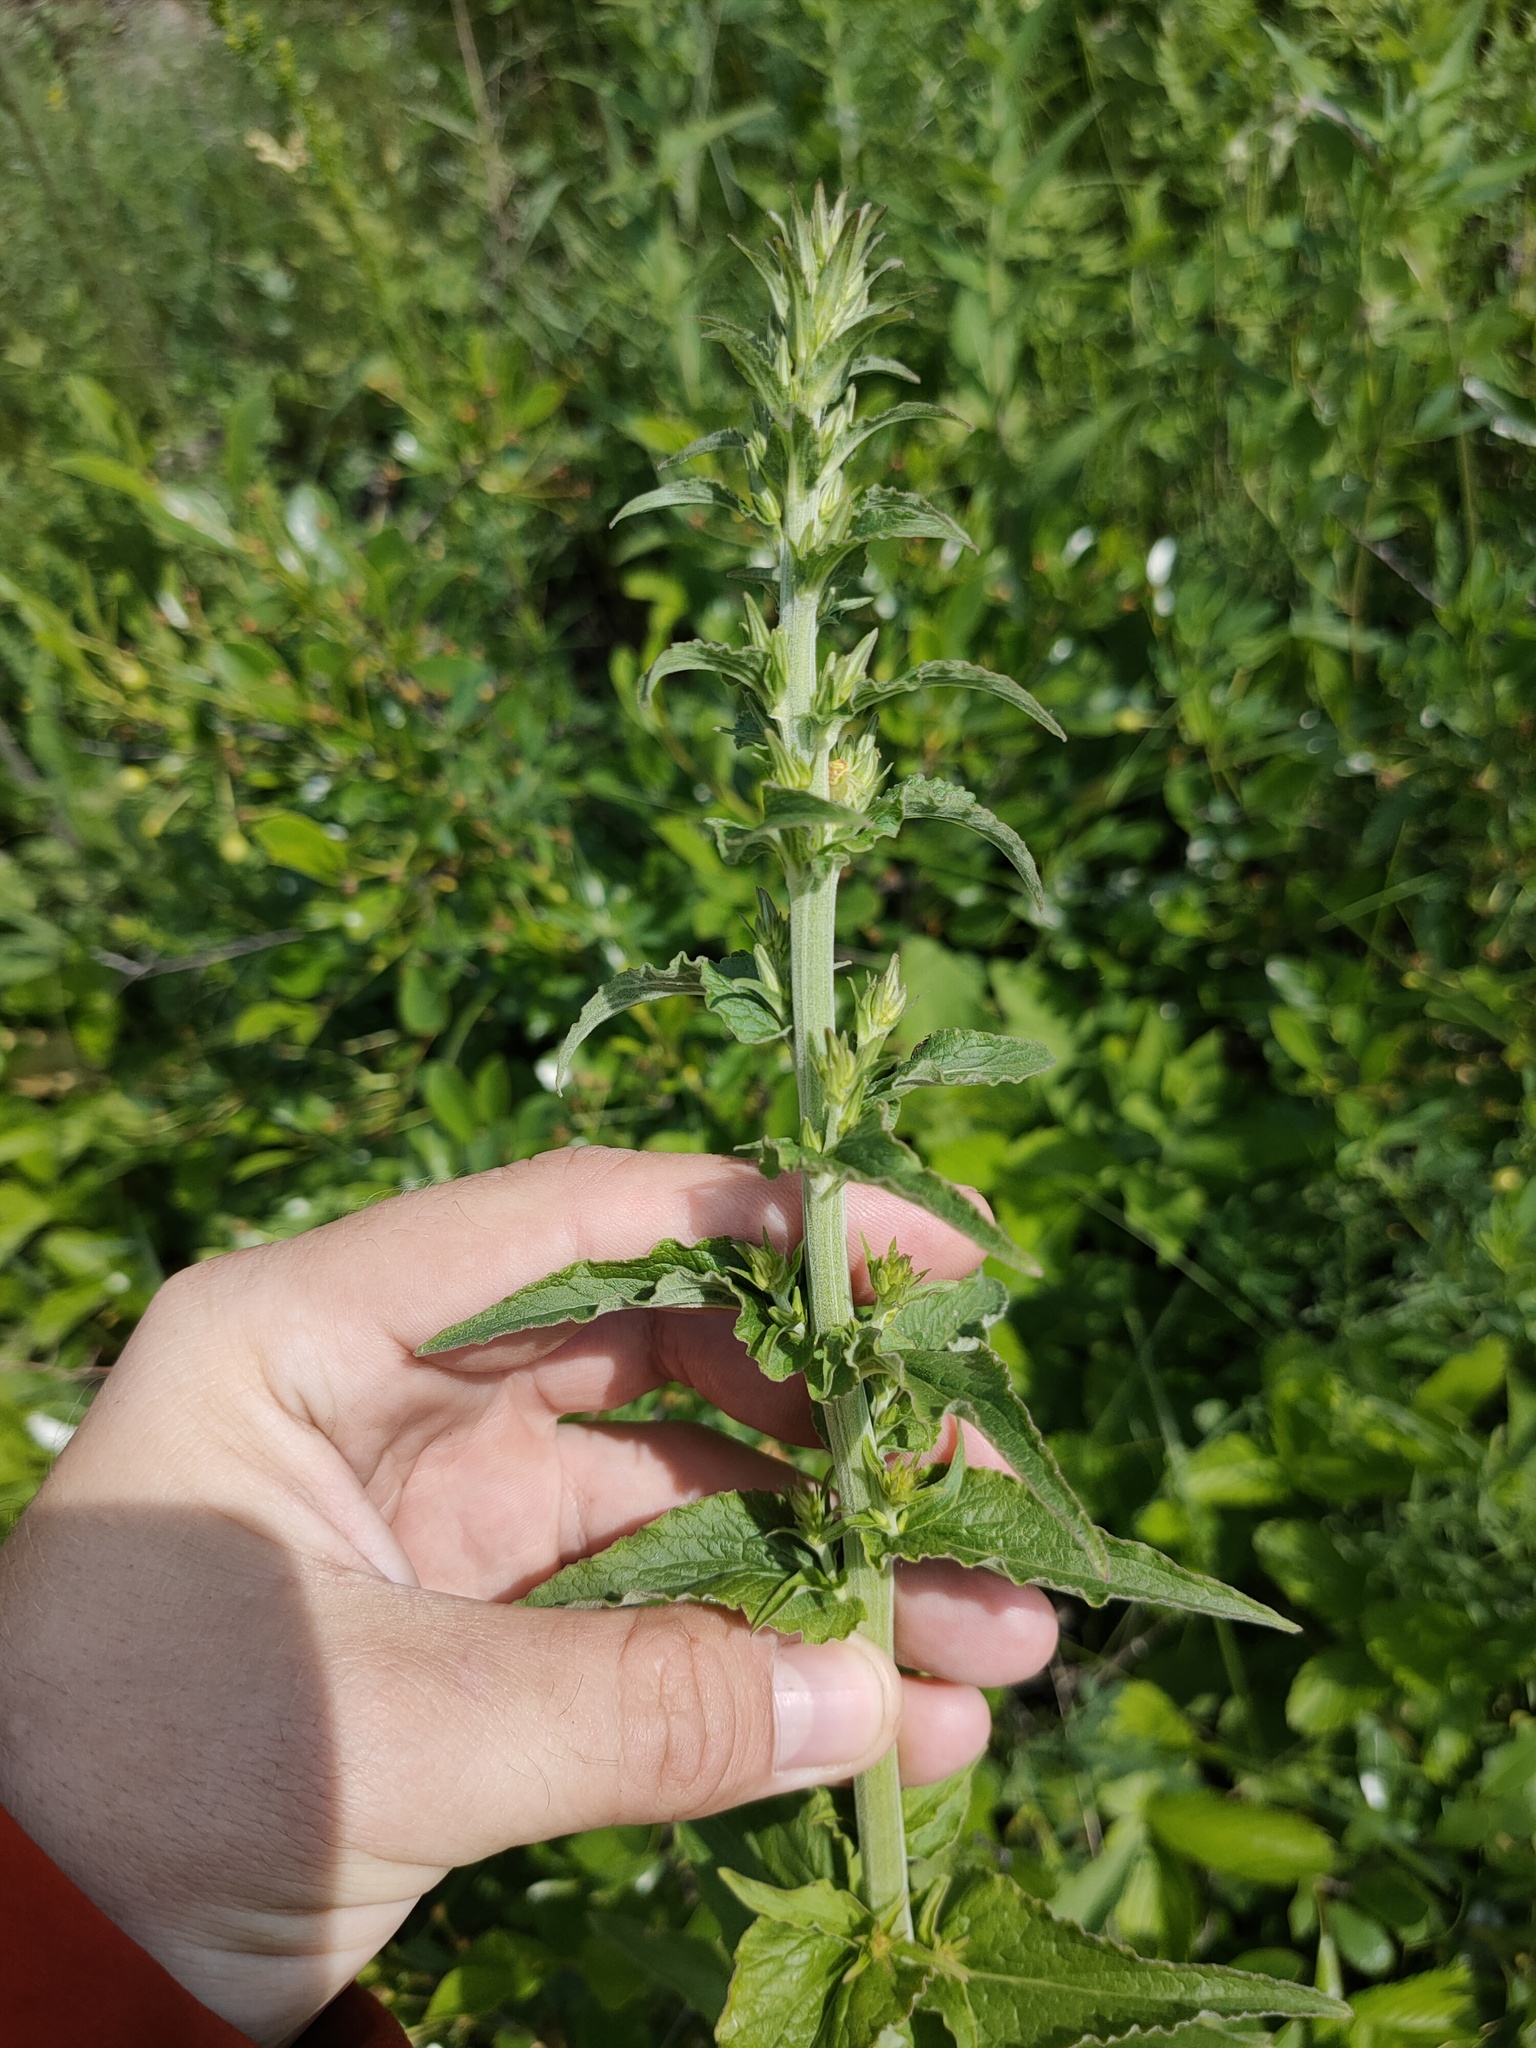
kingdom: Plantae
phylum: Tracheophyta
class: Magnoliopsida
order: Asterales
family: Campanulaceae
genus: Campanula
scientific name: Campanula bononiensis
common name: Pale bellflower
